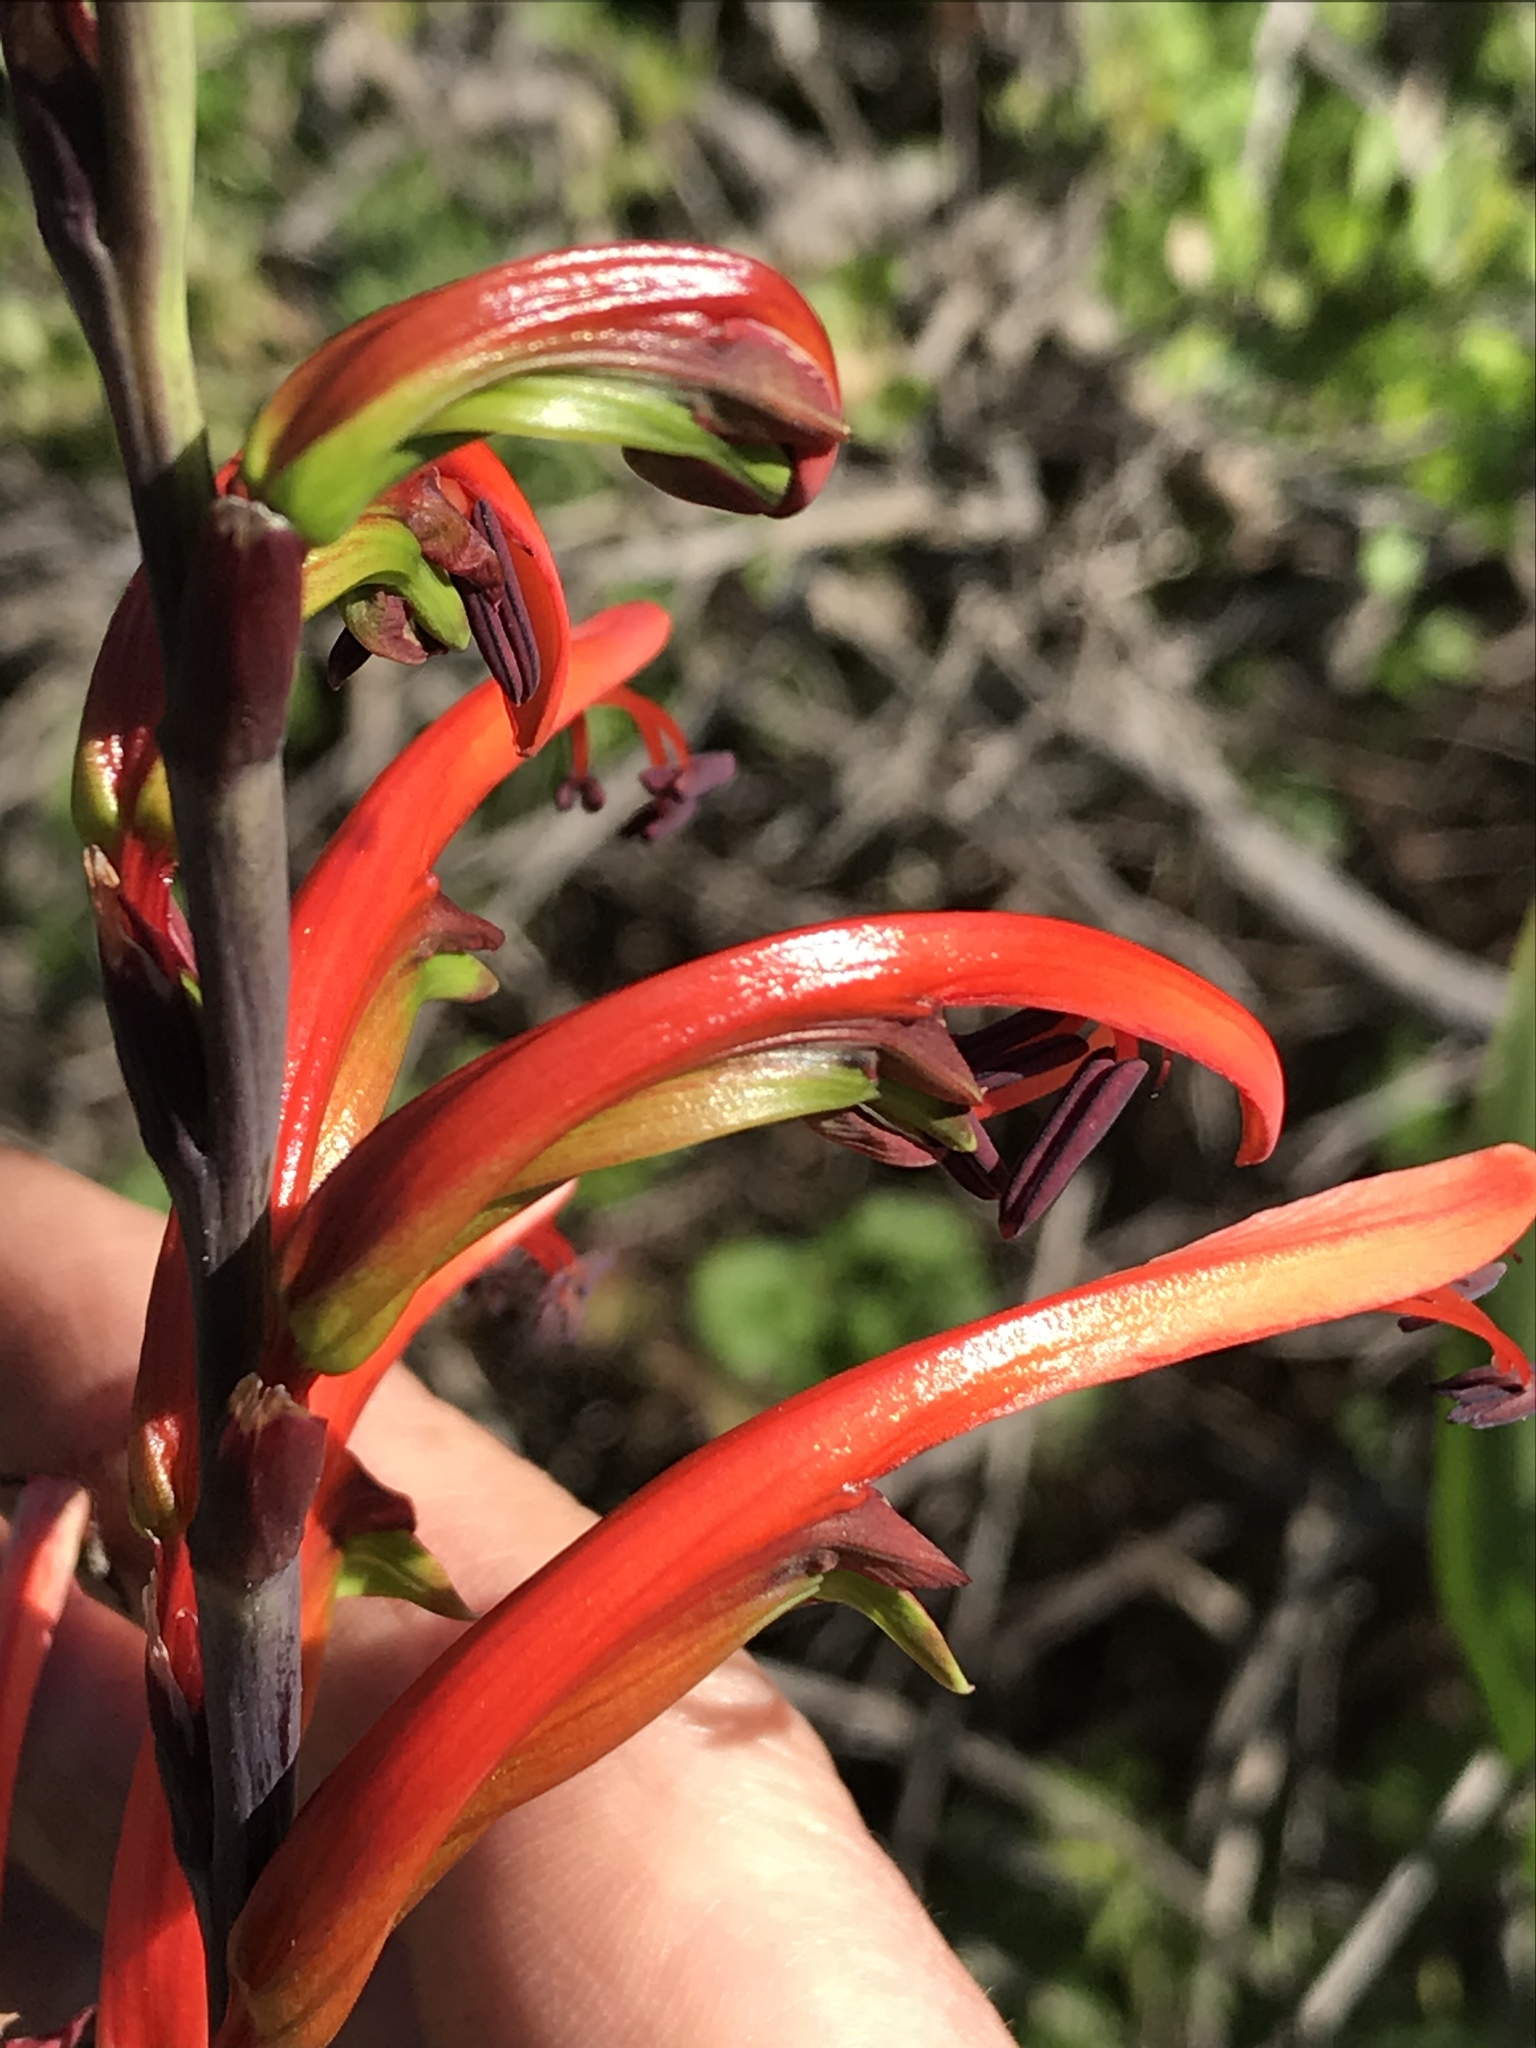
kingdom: Plantae
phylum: Tracheophyta
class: Liliopsida
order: Asparagales
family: Iridaceae
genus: Chasmanthe
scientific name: Chasmanthe bicolor
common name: Bicolor cobra lily
